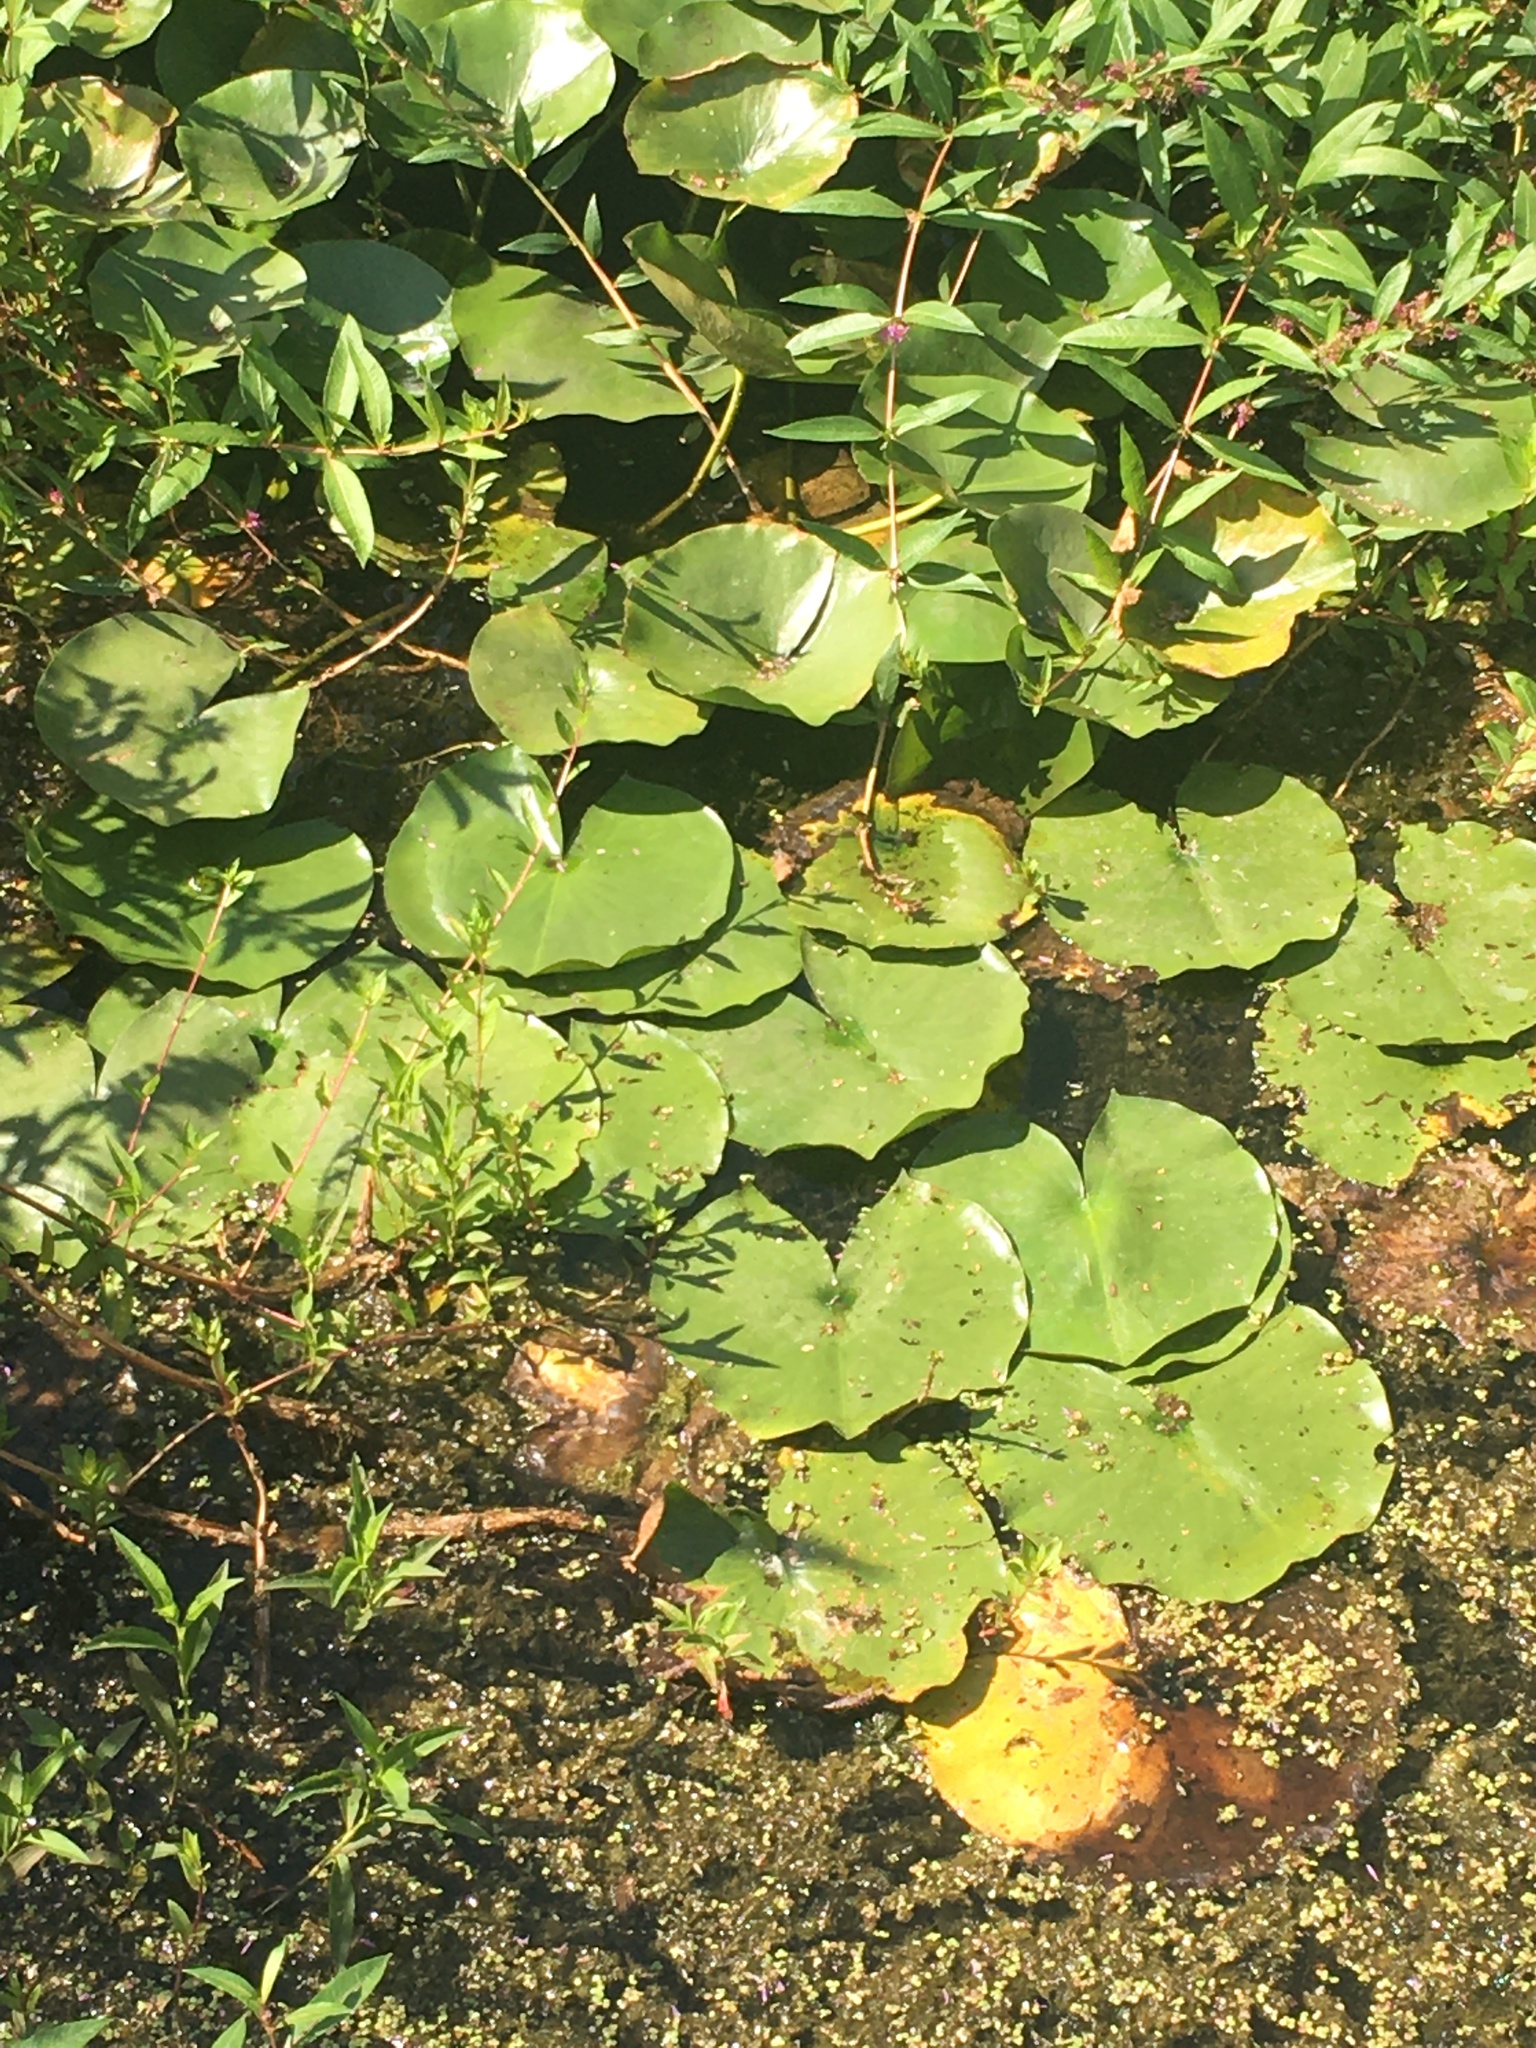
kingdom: Plantae
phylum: Tracheophyta
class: Magnoliopsida
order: Nymphaeales
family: Nymphaeaceae
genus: Nymphaea
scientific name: Nymphaea odorata
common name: Fragrant water-lily
